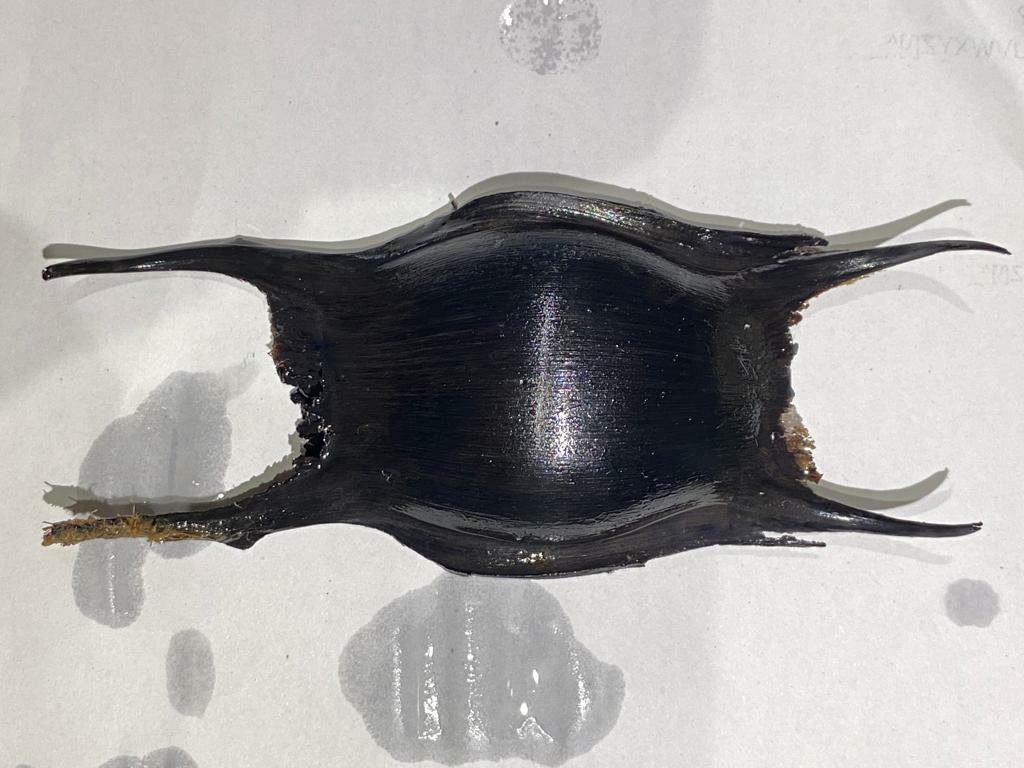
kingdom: Animalia
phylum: Chordata
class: Elasmobranchii
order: Rajiformes
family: Rajidae
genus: Raja
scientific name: Raja clavata
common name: Thornback ray
